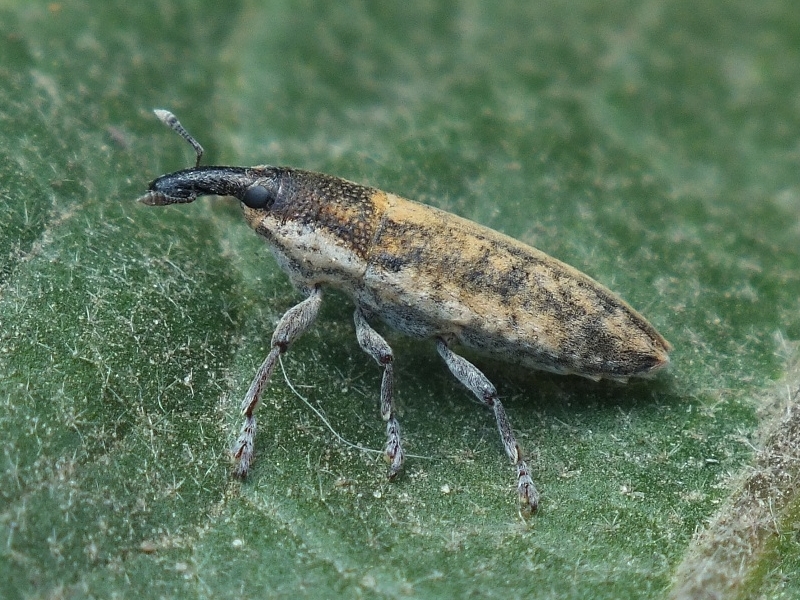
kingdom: Animalia
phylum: Arthropoda
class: Insecta
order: Coleoptera
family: Curculionidae
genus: Lixus
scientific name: Lixus subtilis
